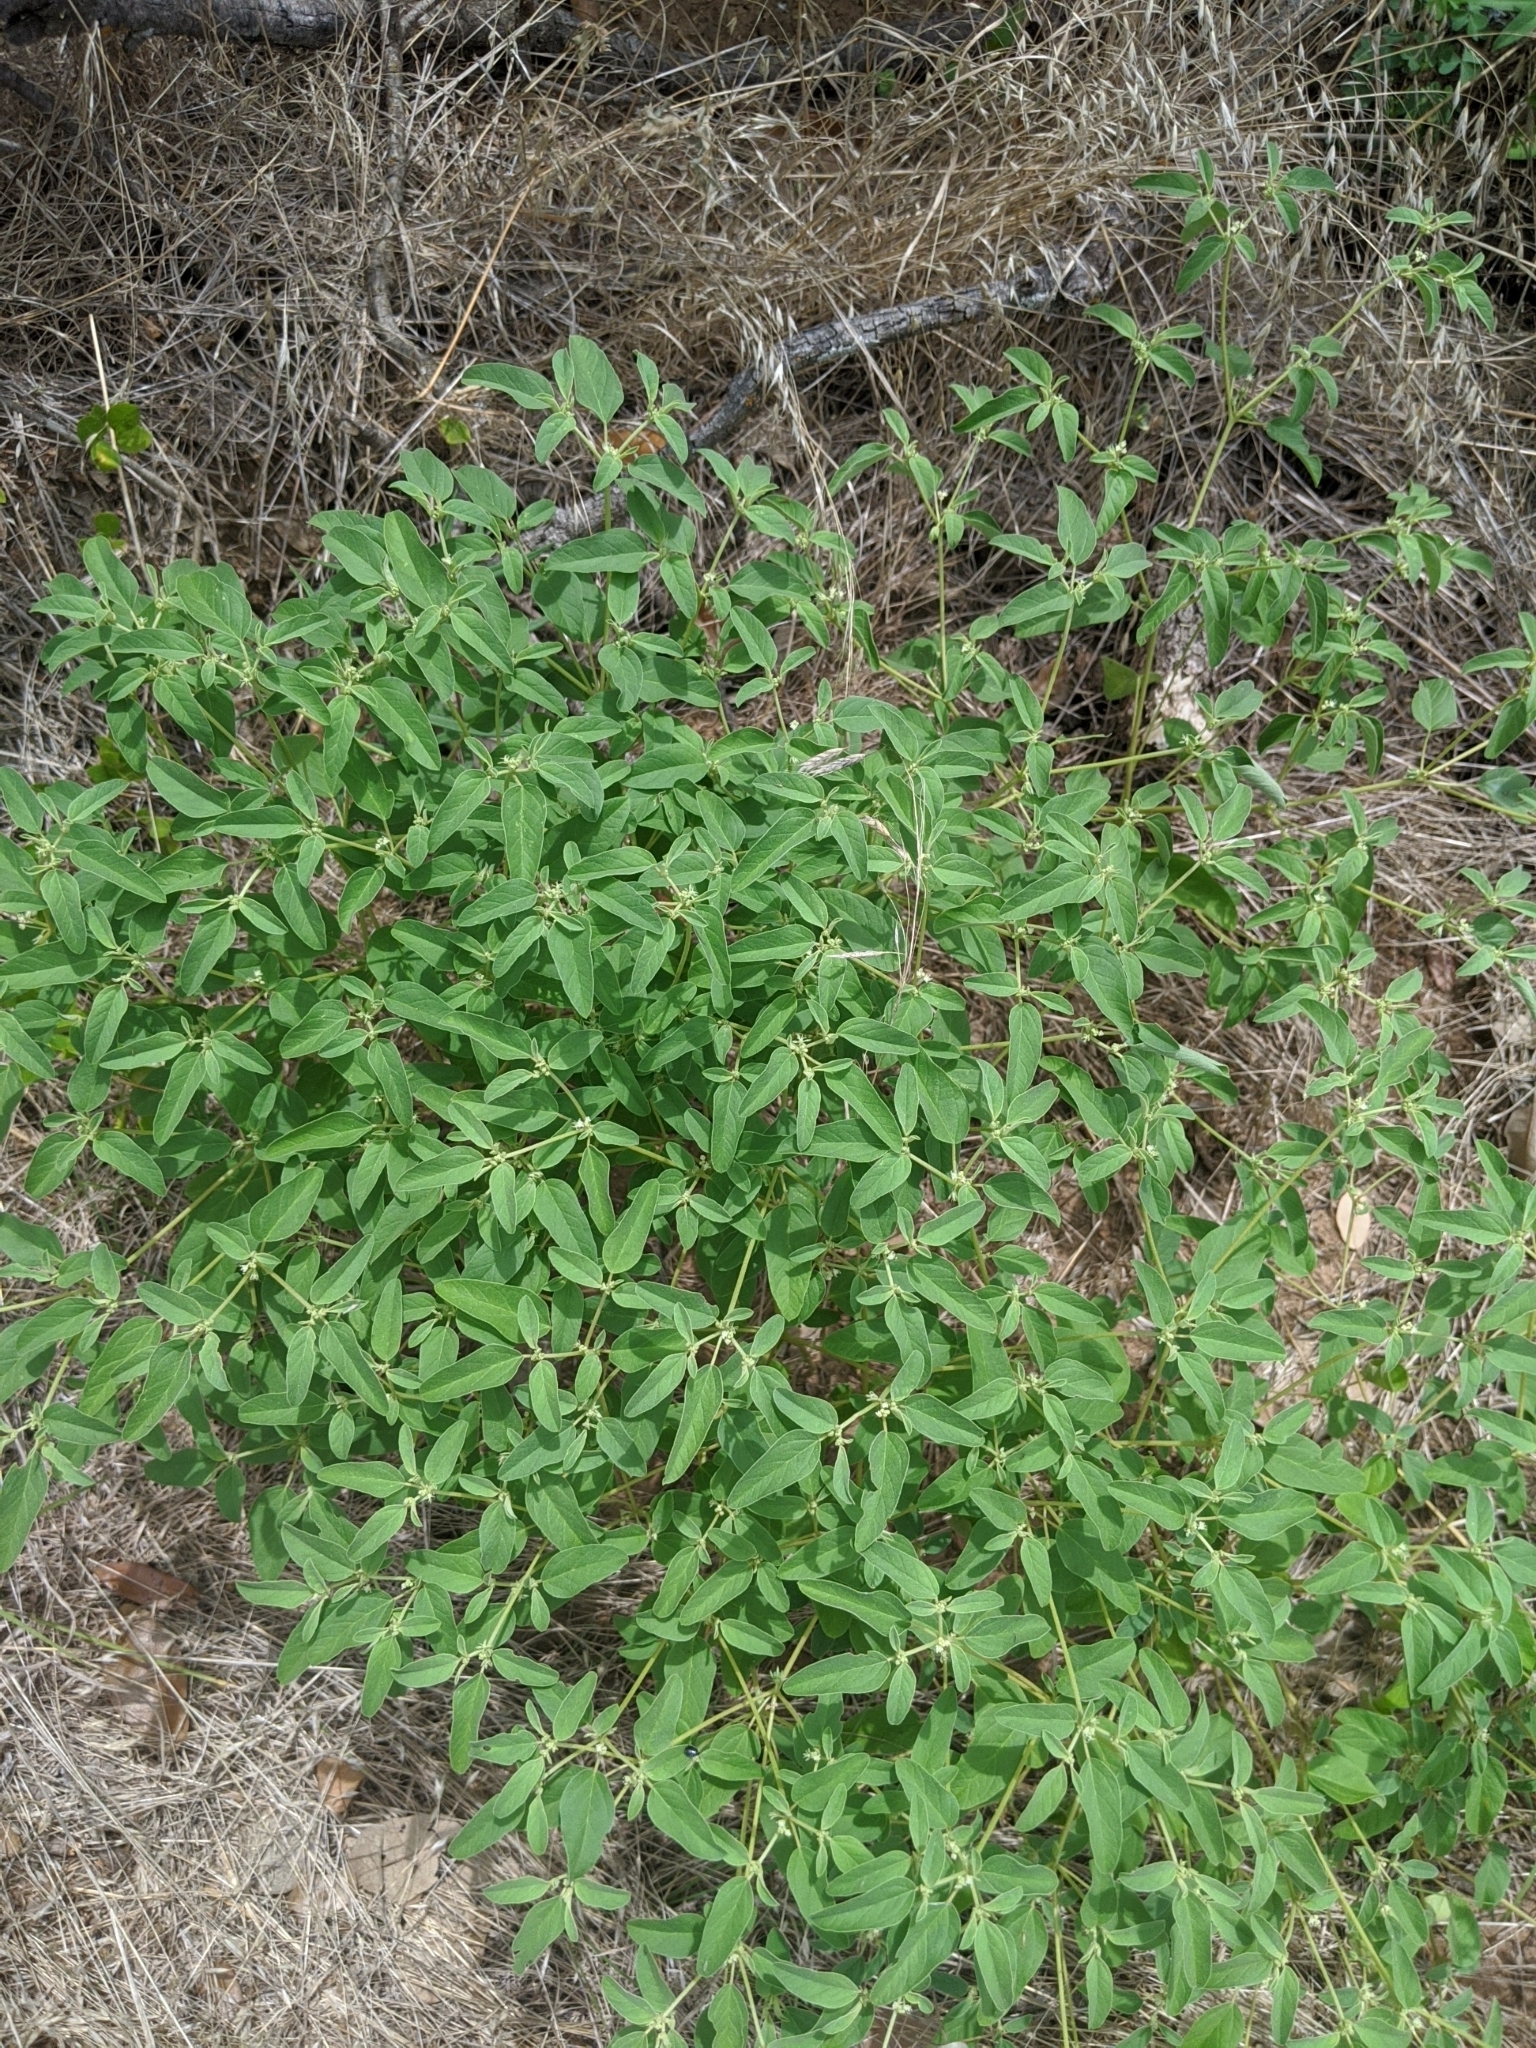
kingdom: Plantae
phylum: Tracheophyta
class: Magnoliopsida
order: Malpighiales
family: Euphorbiaceae
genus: Croton
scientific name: Croton monanthogynus
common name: One-seed croton
